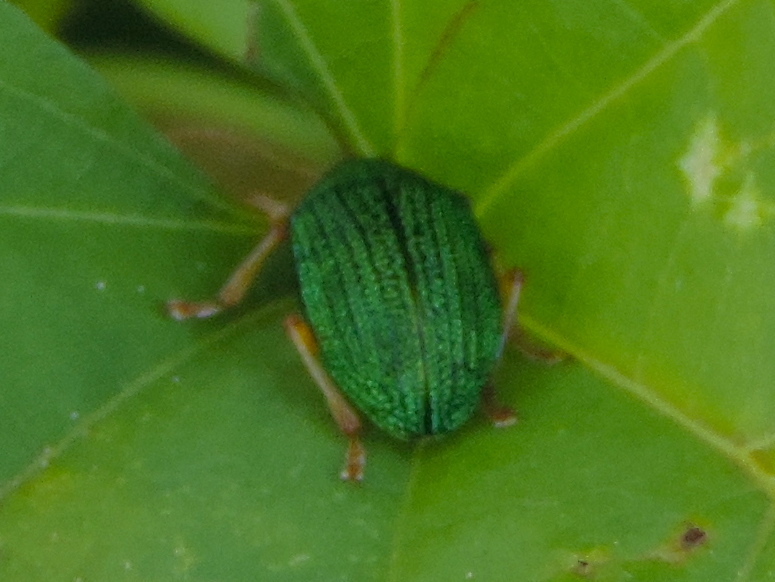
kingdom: Animalia
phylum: Arthropoda
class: Insecta
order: Coleoptera
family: Chrysomelidae
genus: Colaspis
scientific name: Colaspis
